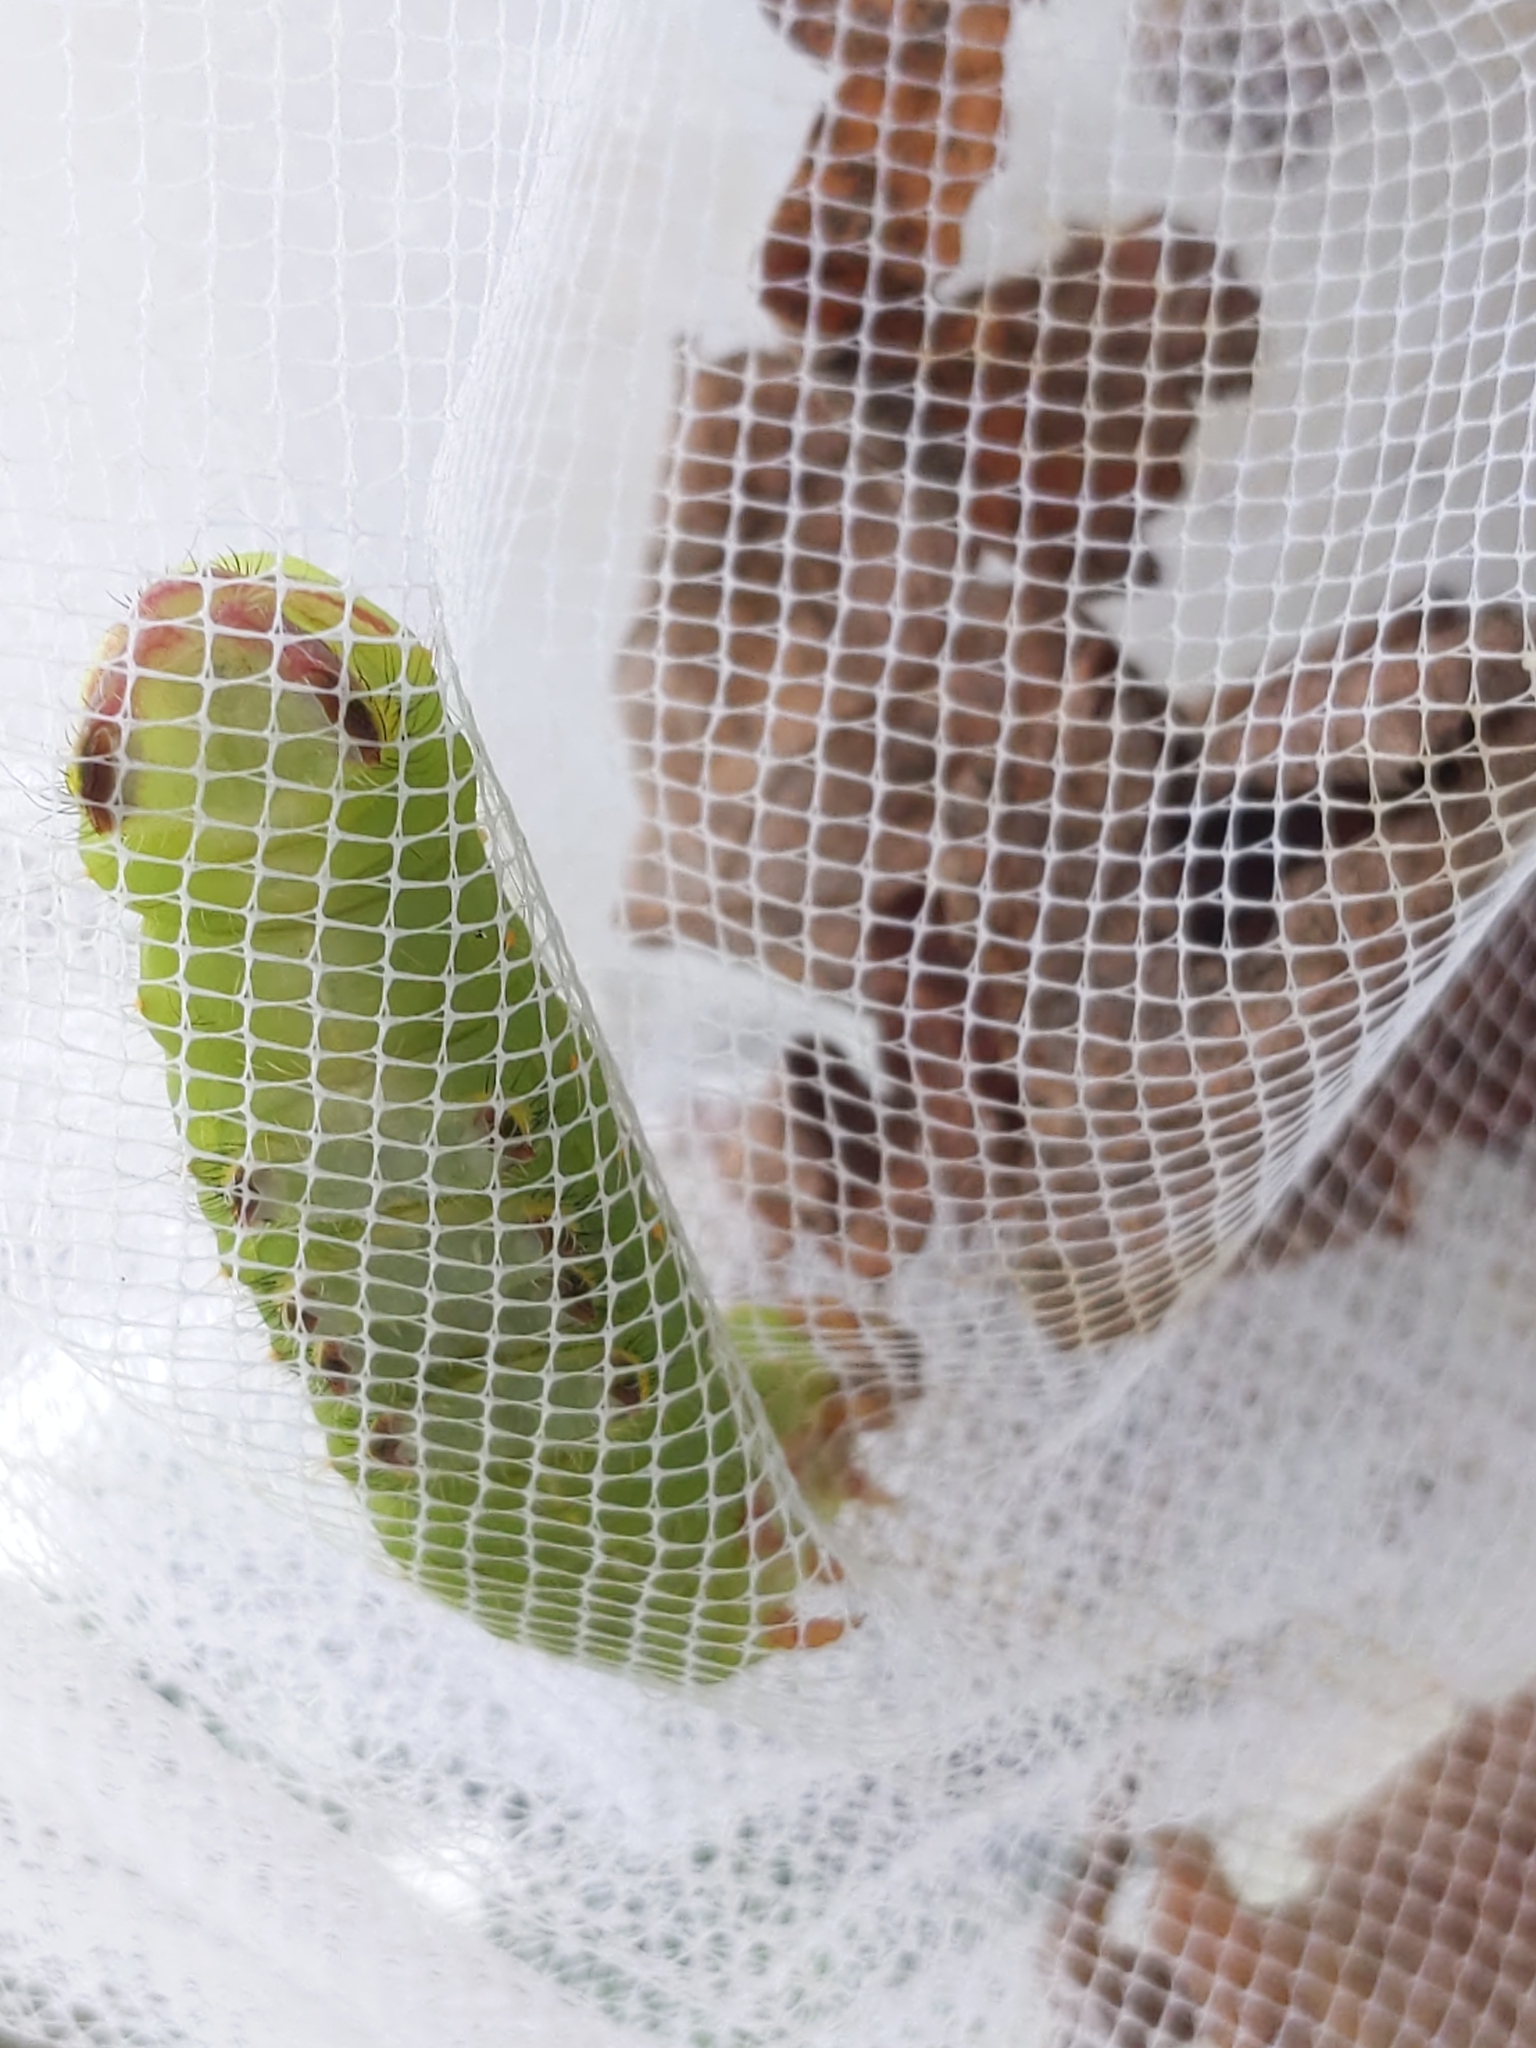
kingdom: Animalia
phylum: Arthropoda
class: Insecta
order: Lepidoptera
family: Saturniidae
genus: Antheraea
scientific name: Antheraea polyphemus
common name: Polyphemus moth
